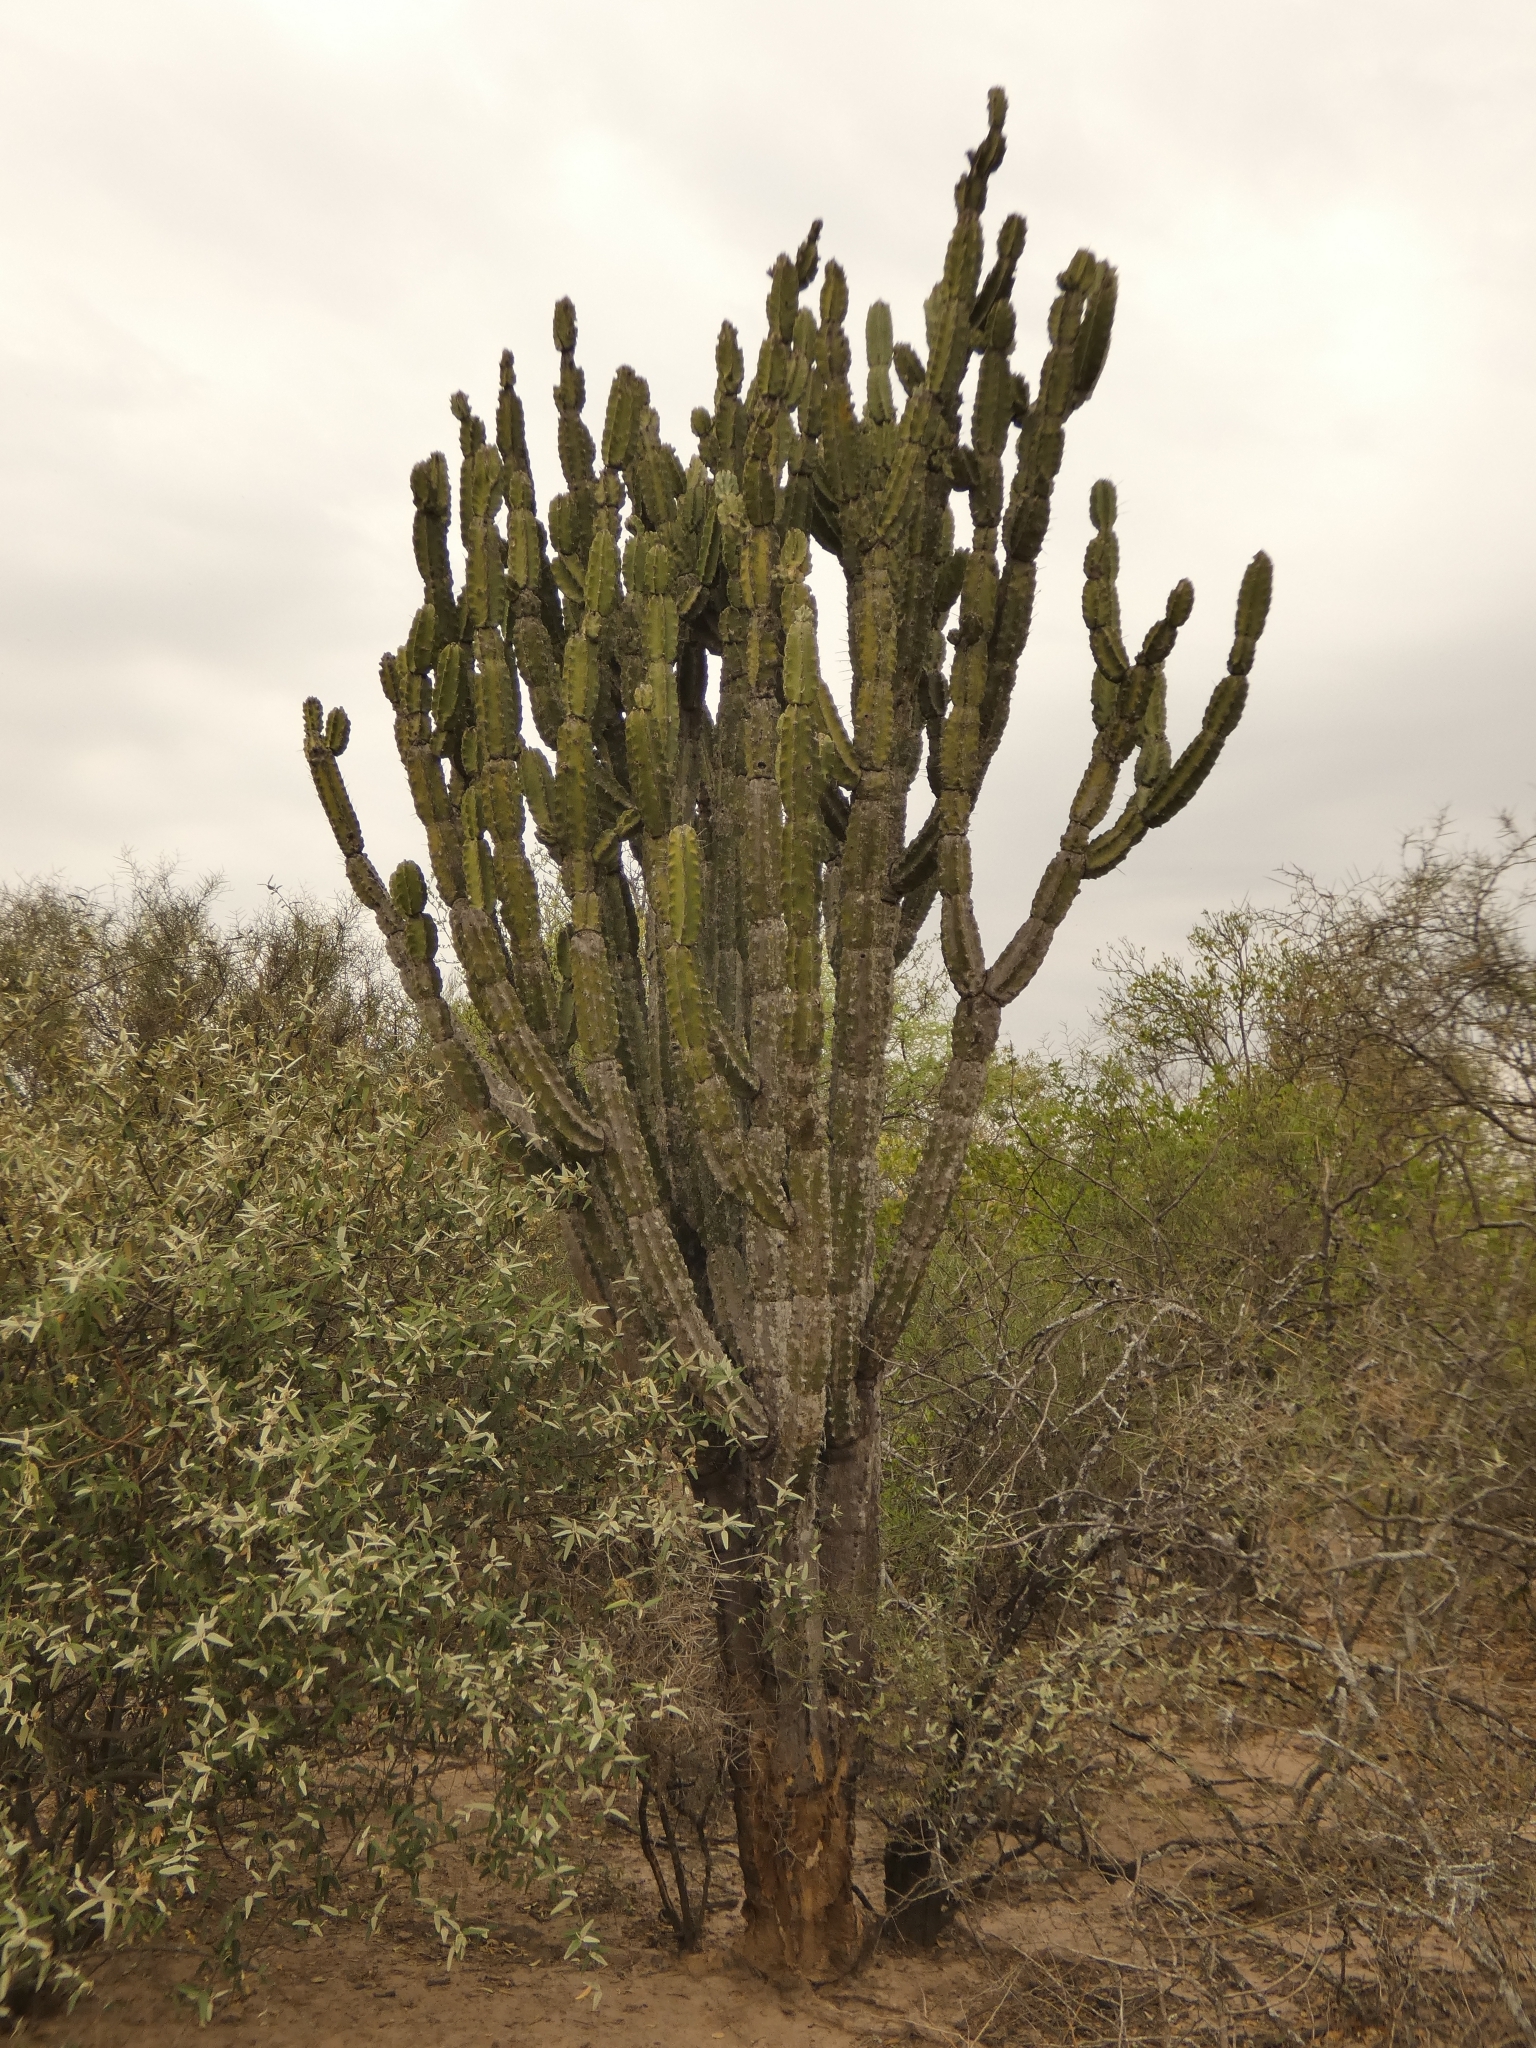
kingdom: Plantae
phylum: Tracheophyta
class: Magnoliopsida
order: Caryophyllales
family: Cactaceae
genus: Cereus
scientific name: Cereus stenogonus
